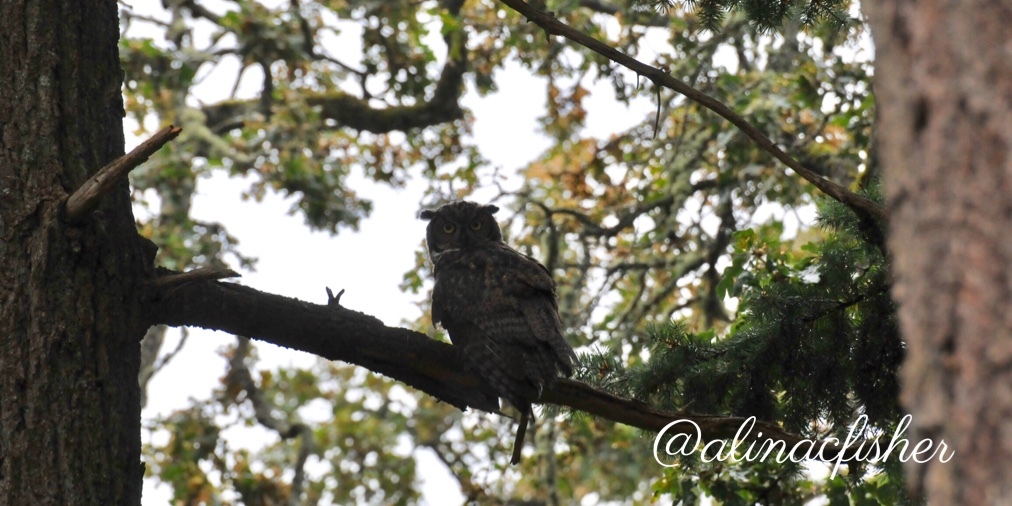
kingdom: Animalia
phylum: Chordata
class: Aves
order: Strigiformes
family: Strigidae
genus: Bubo
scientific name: Bubo virginianus
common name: Great horned owl
